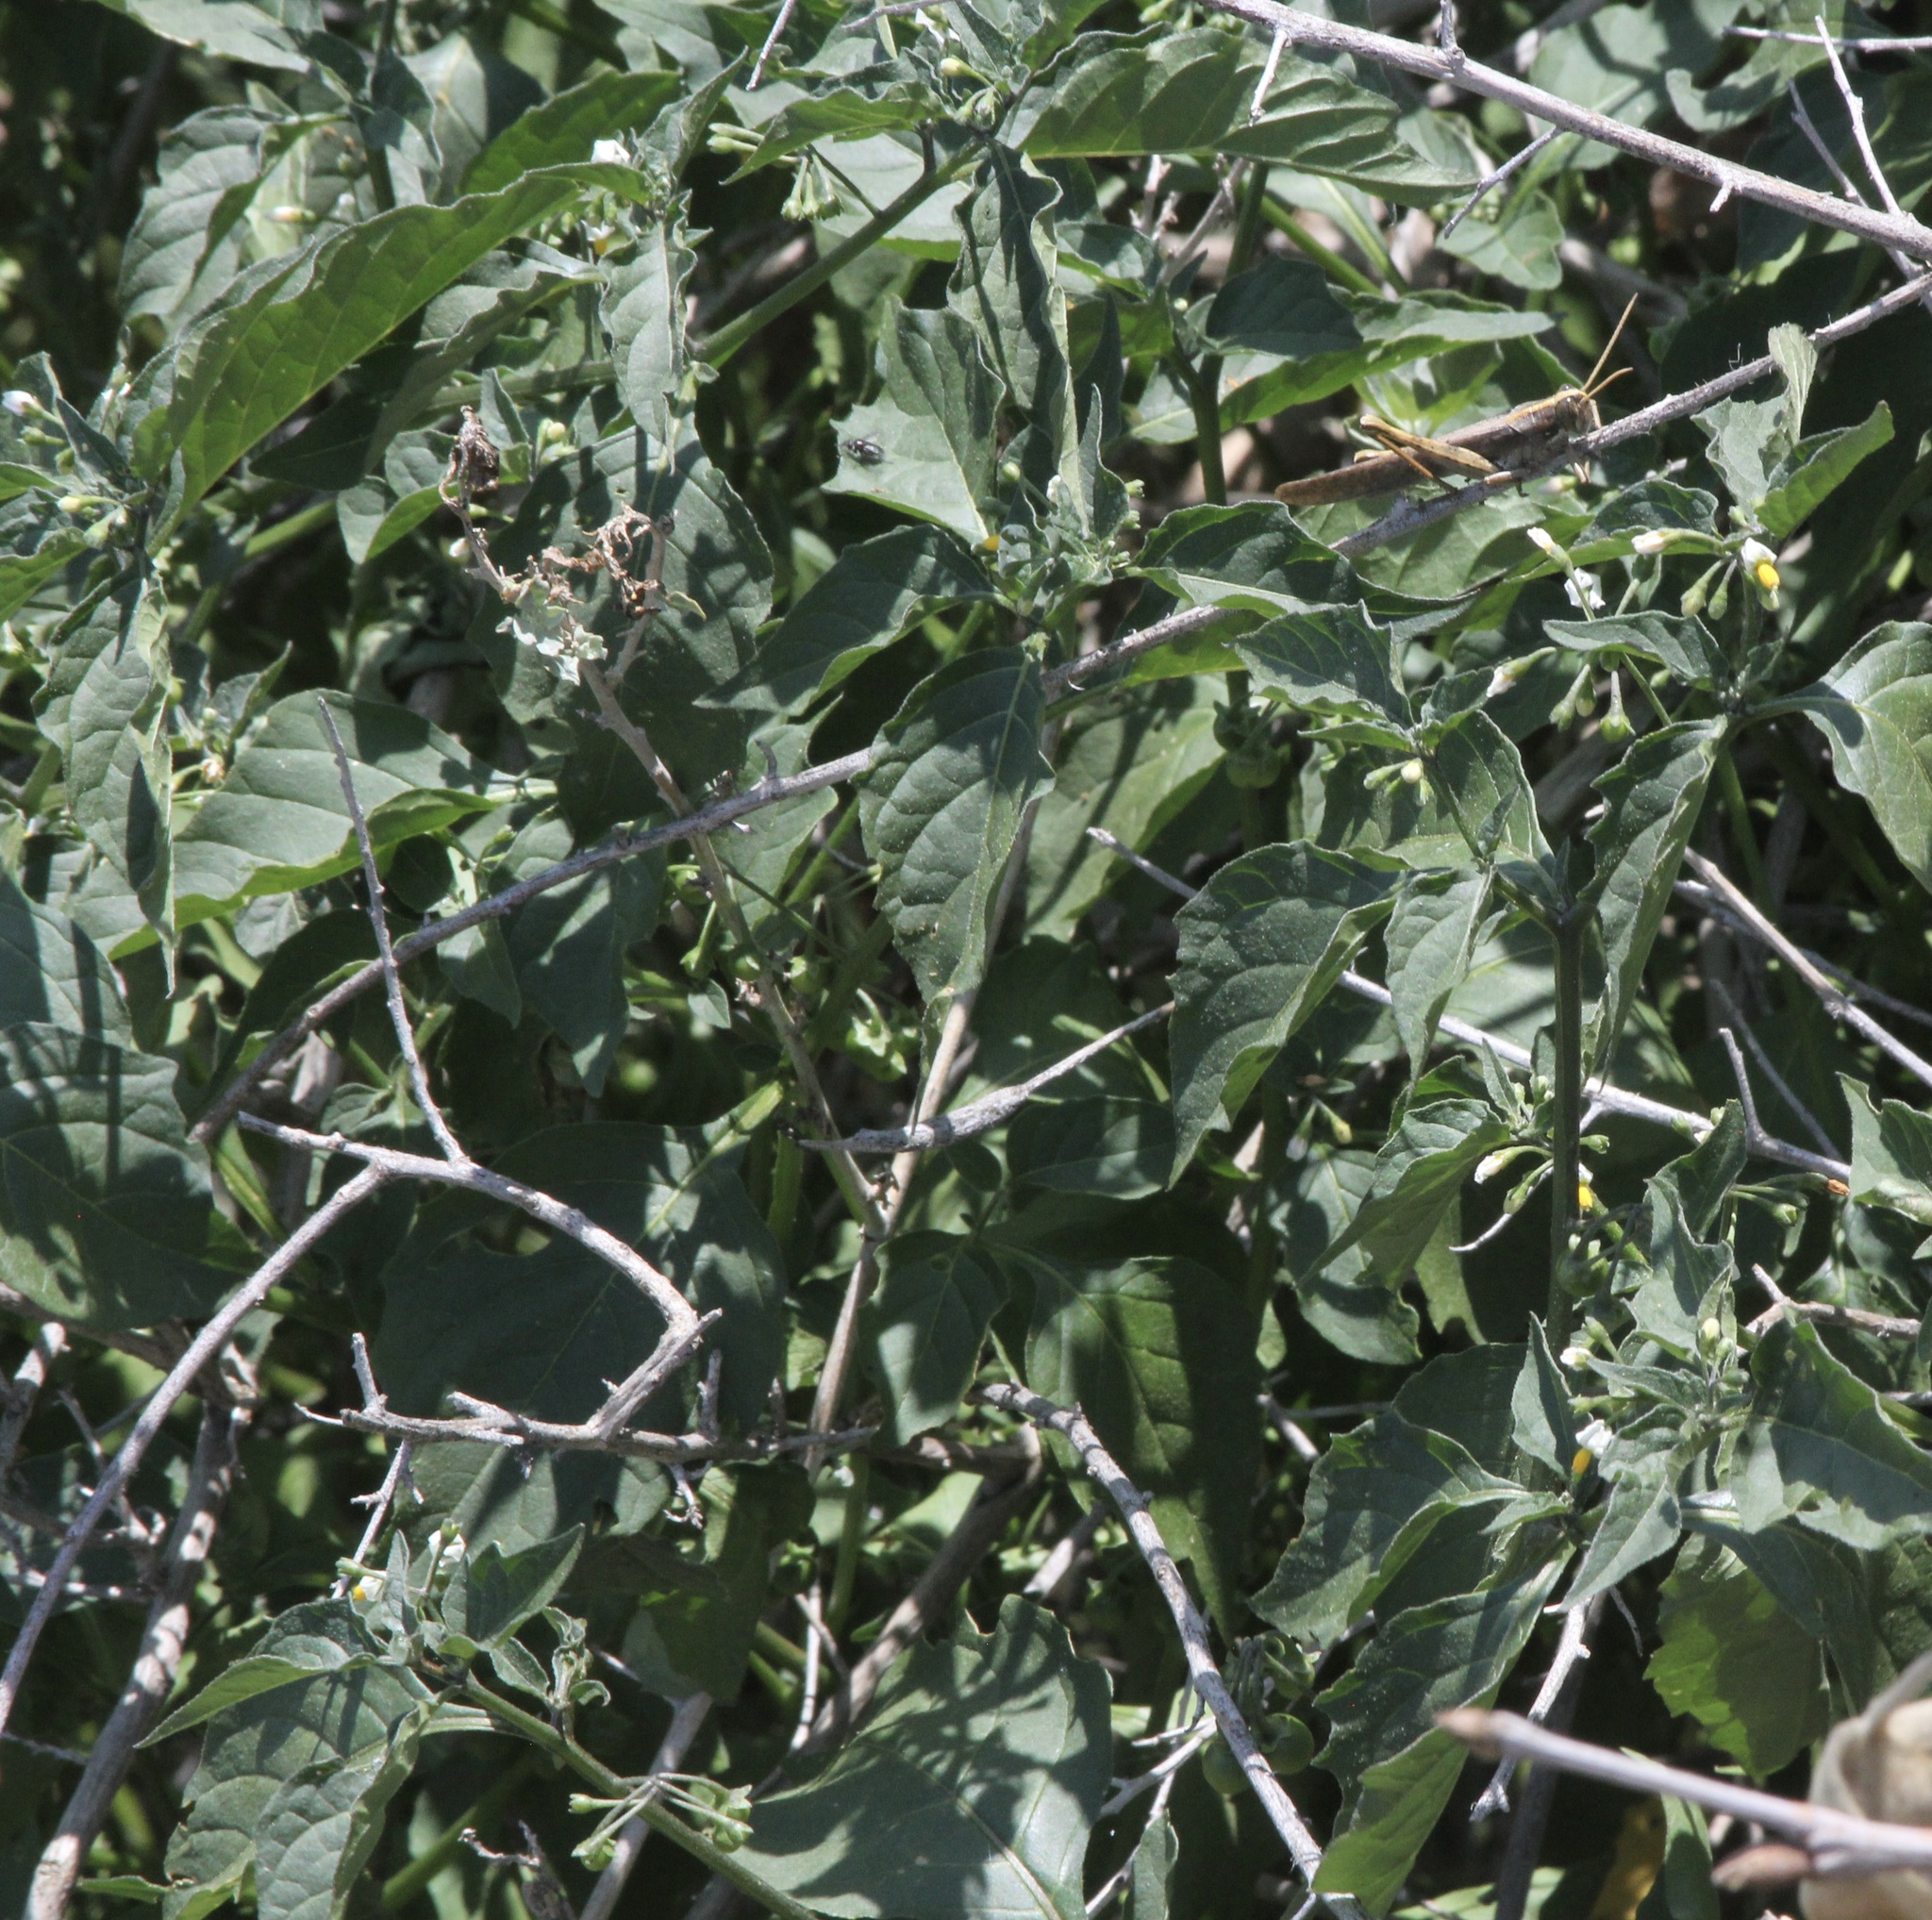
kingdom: Plantae
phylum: Tracheophyta
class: Magnoliopsida
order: Solanales
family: Solanaceae
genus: Solanum
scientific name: Solanum douglasii
